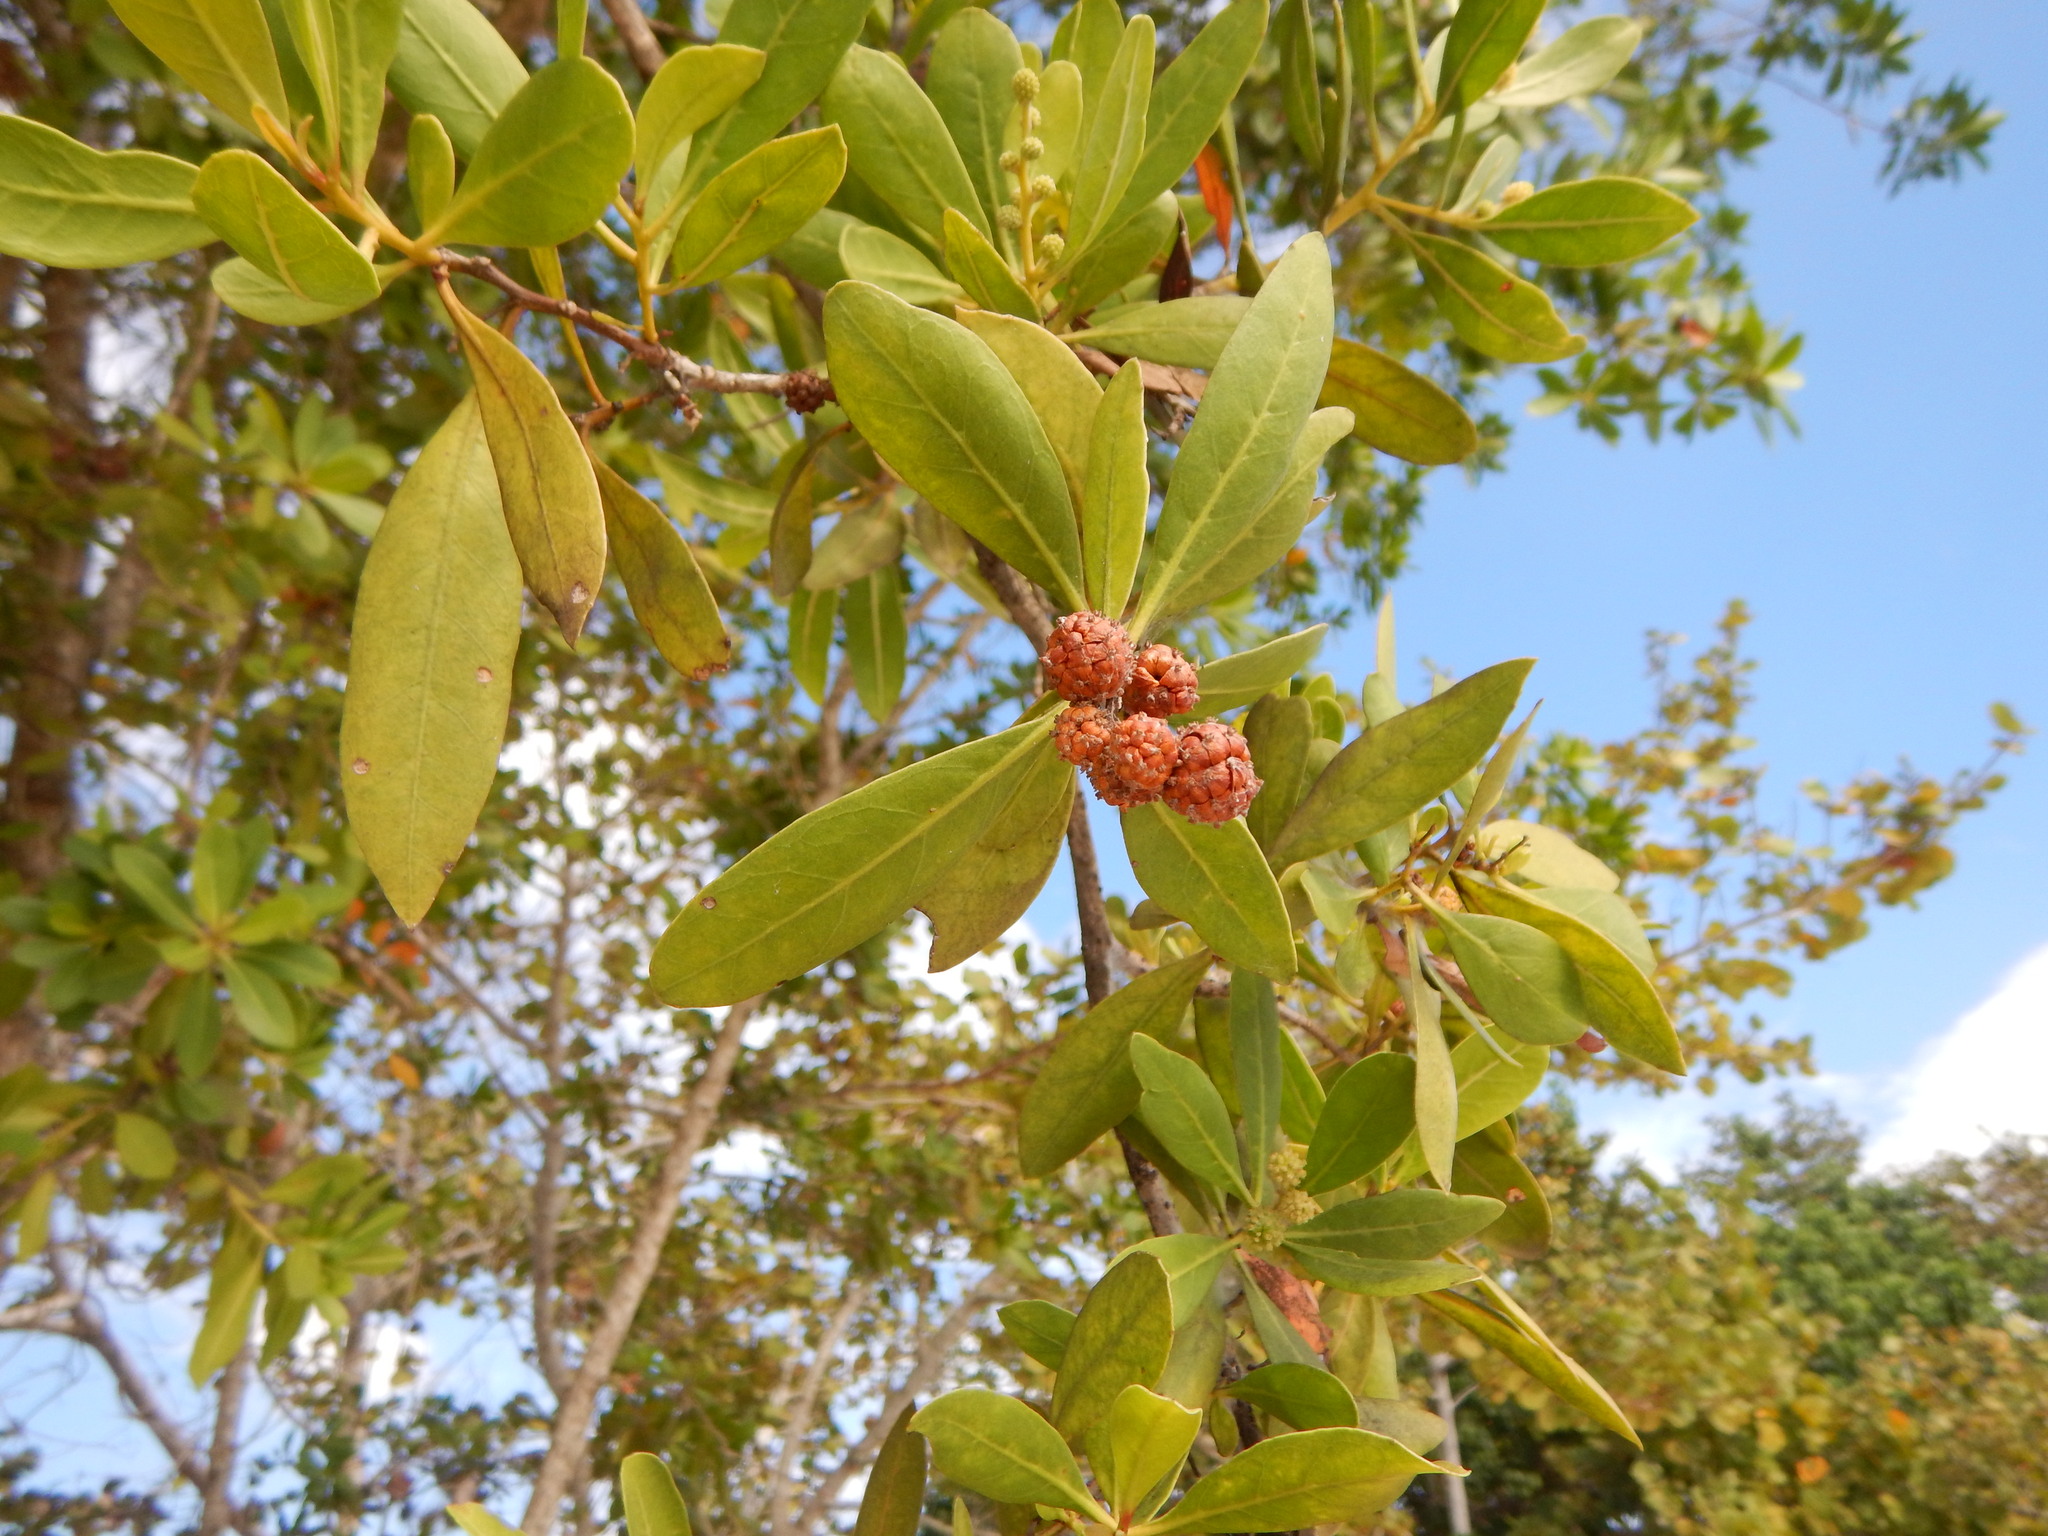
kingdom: Plantae
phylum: Tracheophyta
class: Magnoliopsida
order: Myrtales
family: Combretaceae
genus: Conocarpus
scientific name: Conocarpus erectus
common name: Button mangrove
